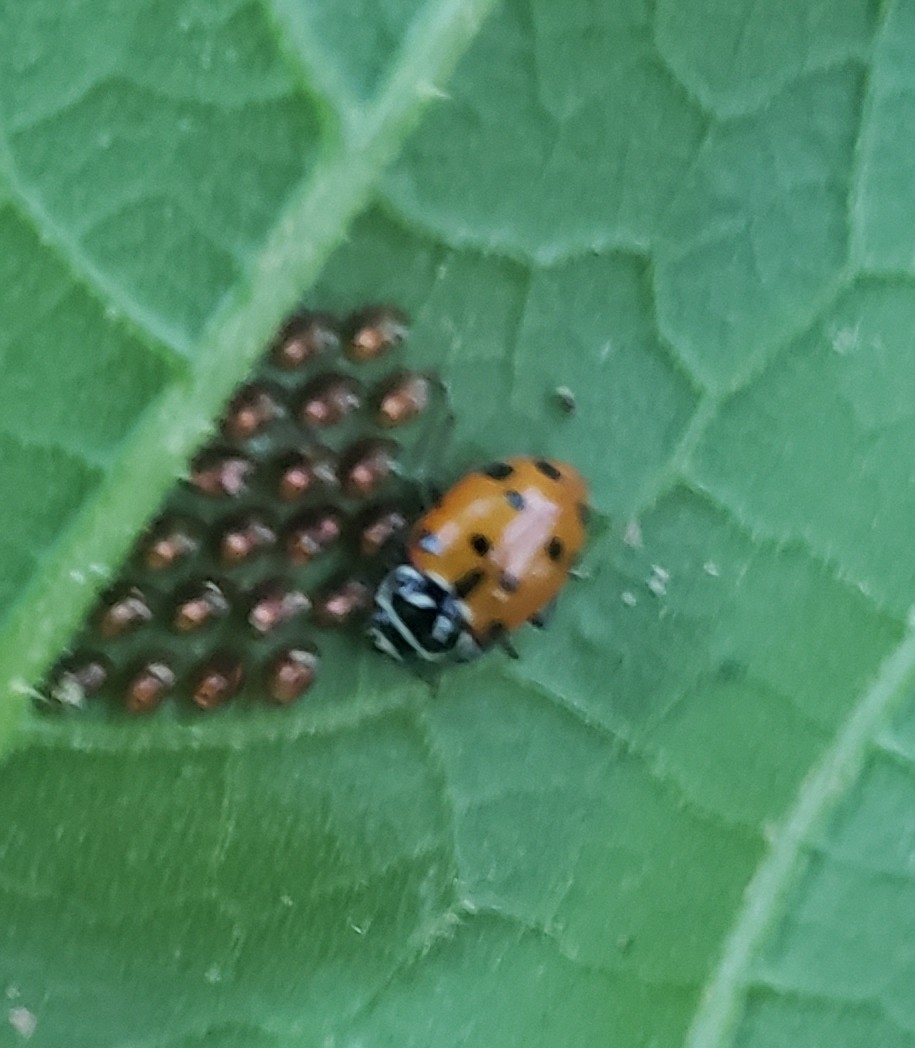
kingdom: Animalia
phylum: Arthropoda
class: Insecta
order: Coleoptera
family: Coccinellidae
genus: Hippodamia
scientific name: Hippodamia convergens
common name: Convergent lady beetle
